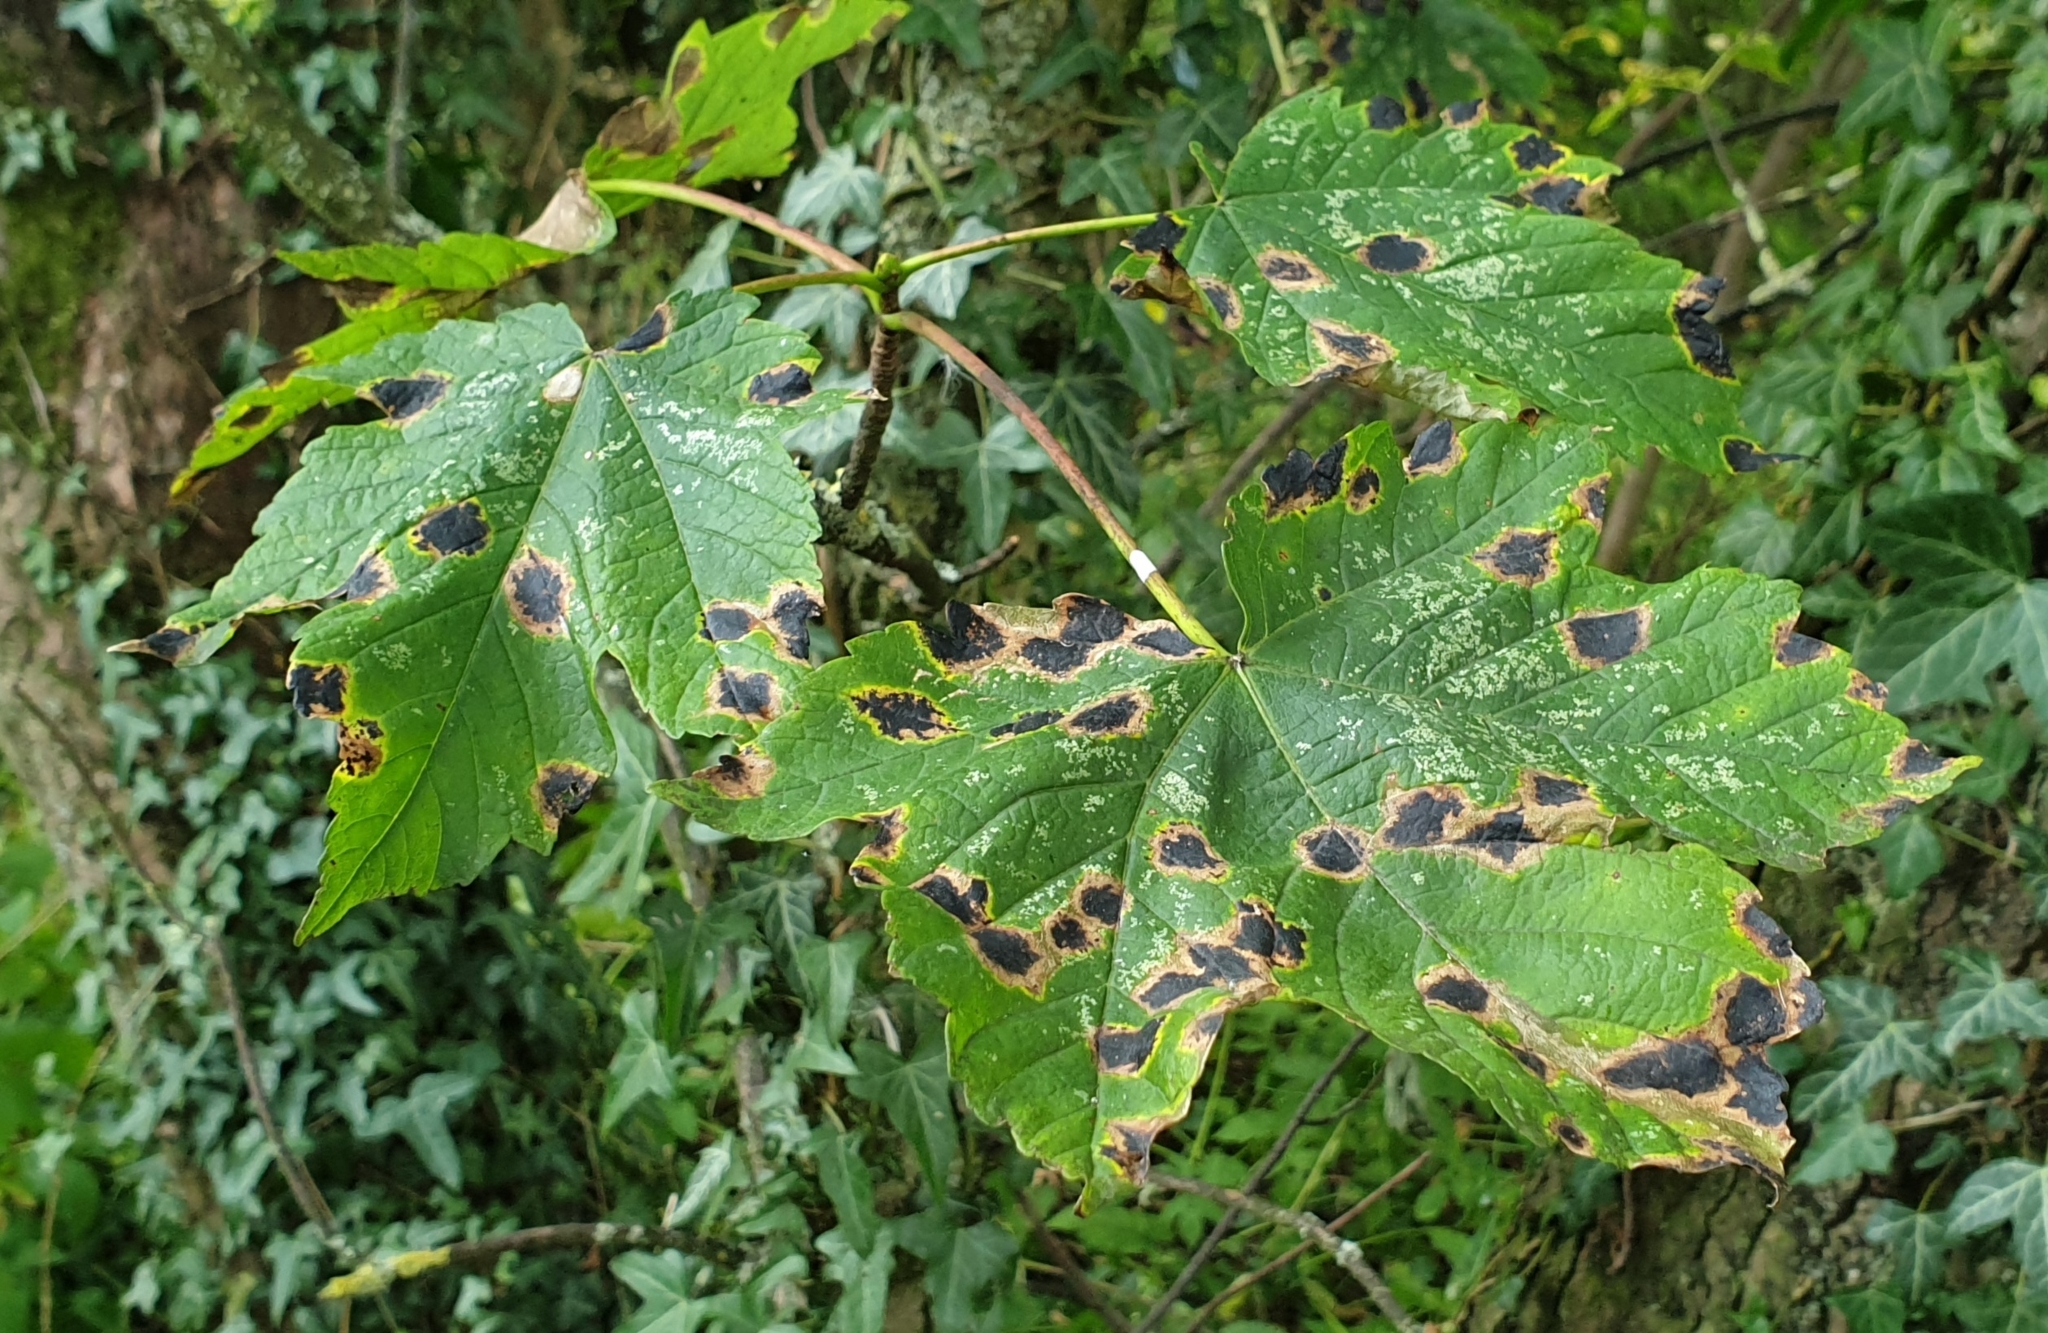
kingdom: Plantae
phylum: Tracheophyta
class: Magnoliopsida
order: Sapindales
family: Sapindaceae
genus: Acer
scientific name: Acer pseudoplatanus
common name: Sycamore
